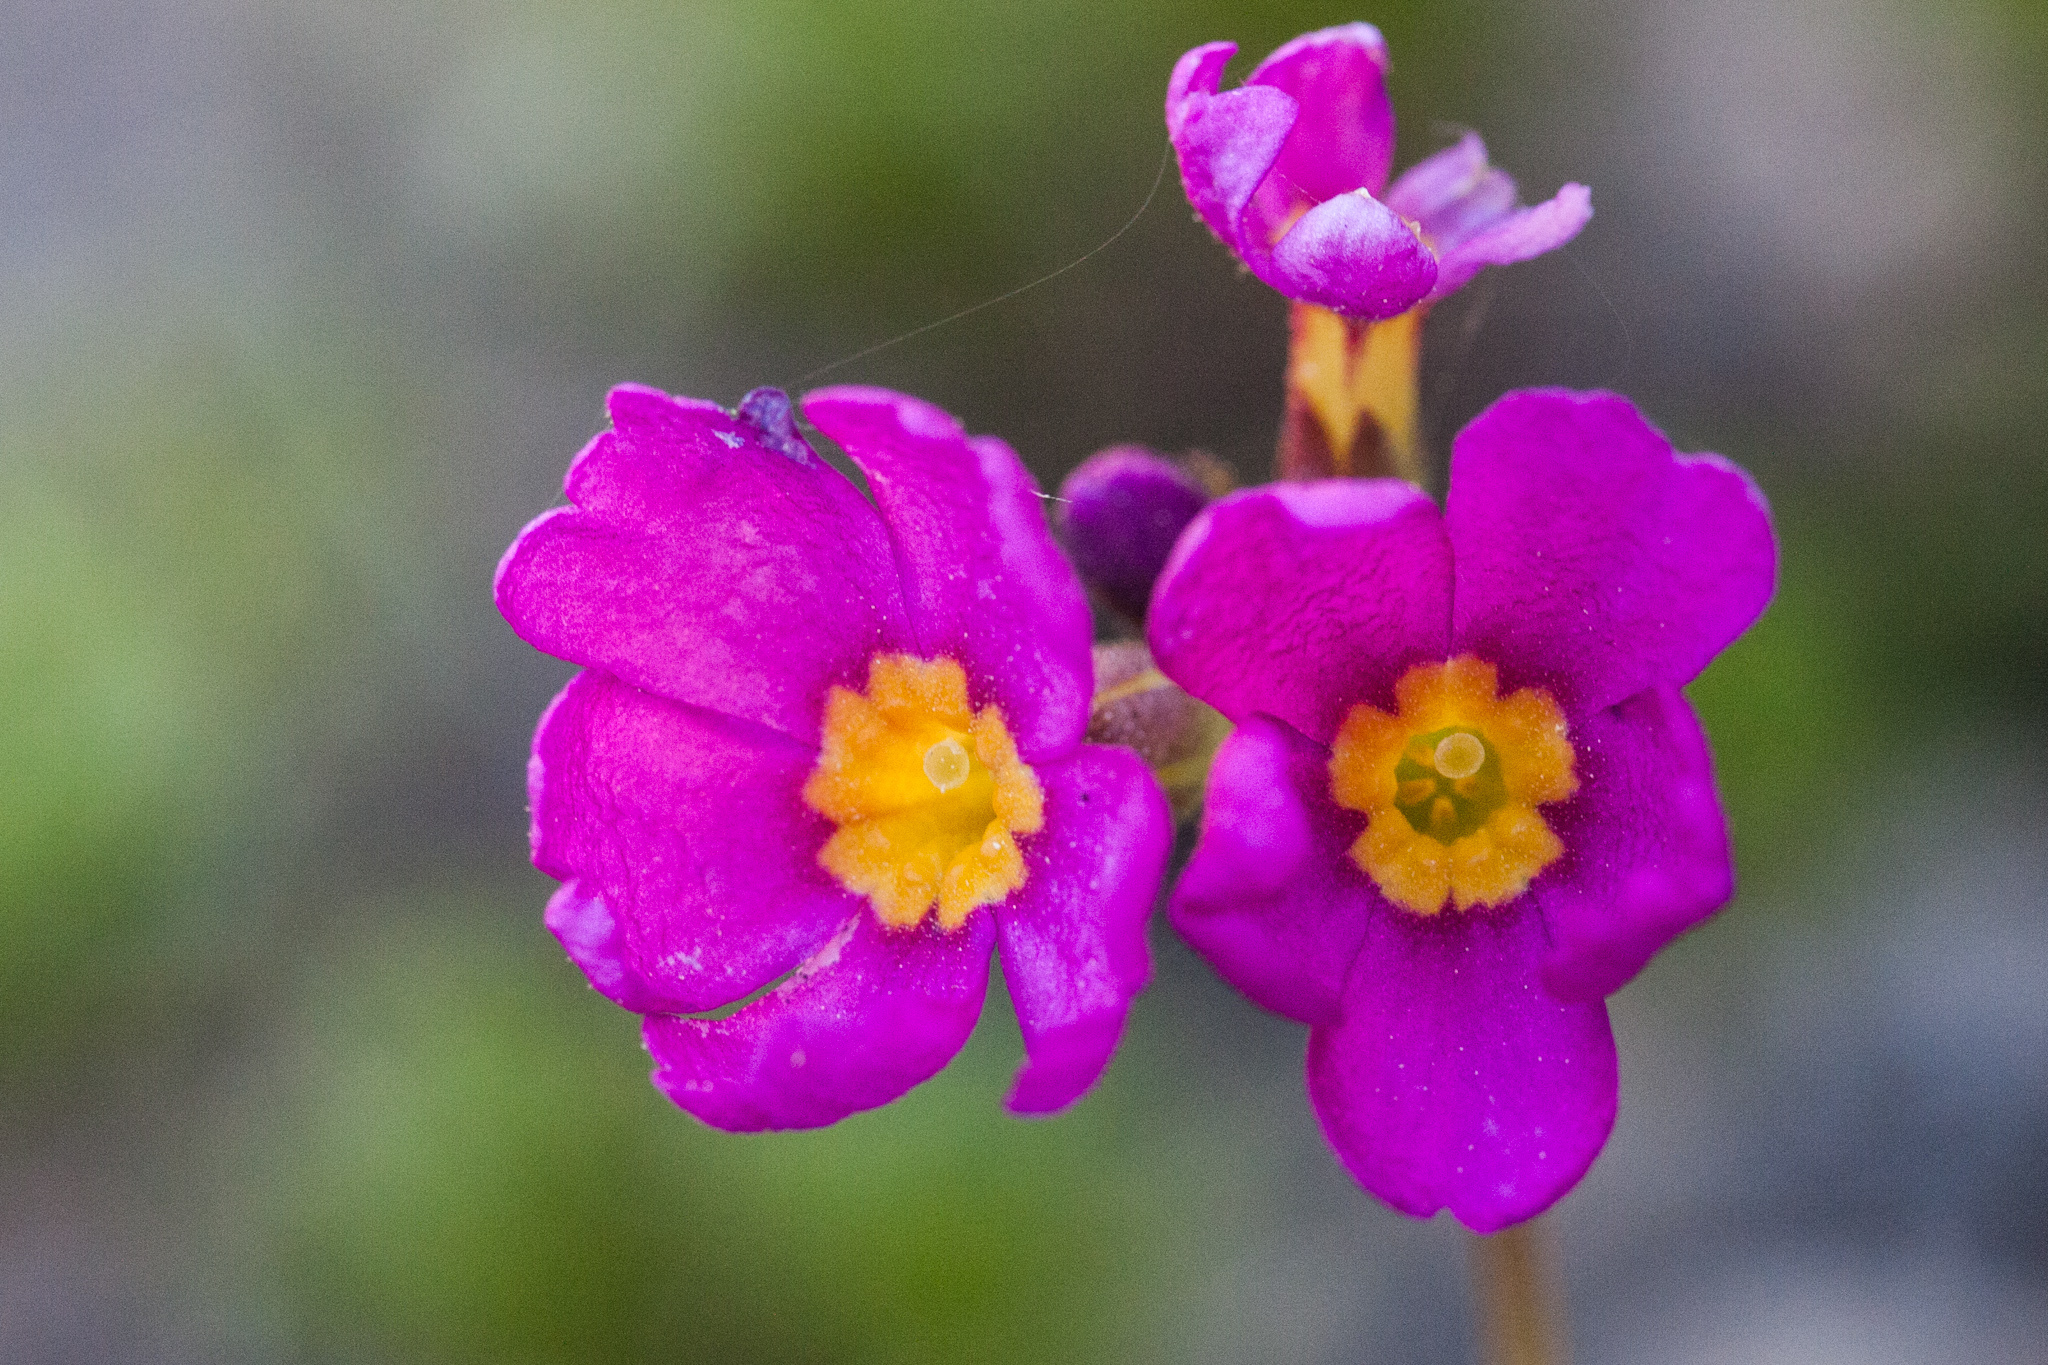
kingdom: Plantae
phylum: Tracheophyta
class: Magnoliopsida
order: Ericales
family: Primulaceae
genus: Primula
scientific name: Primula suffrutescens
